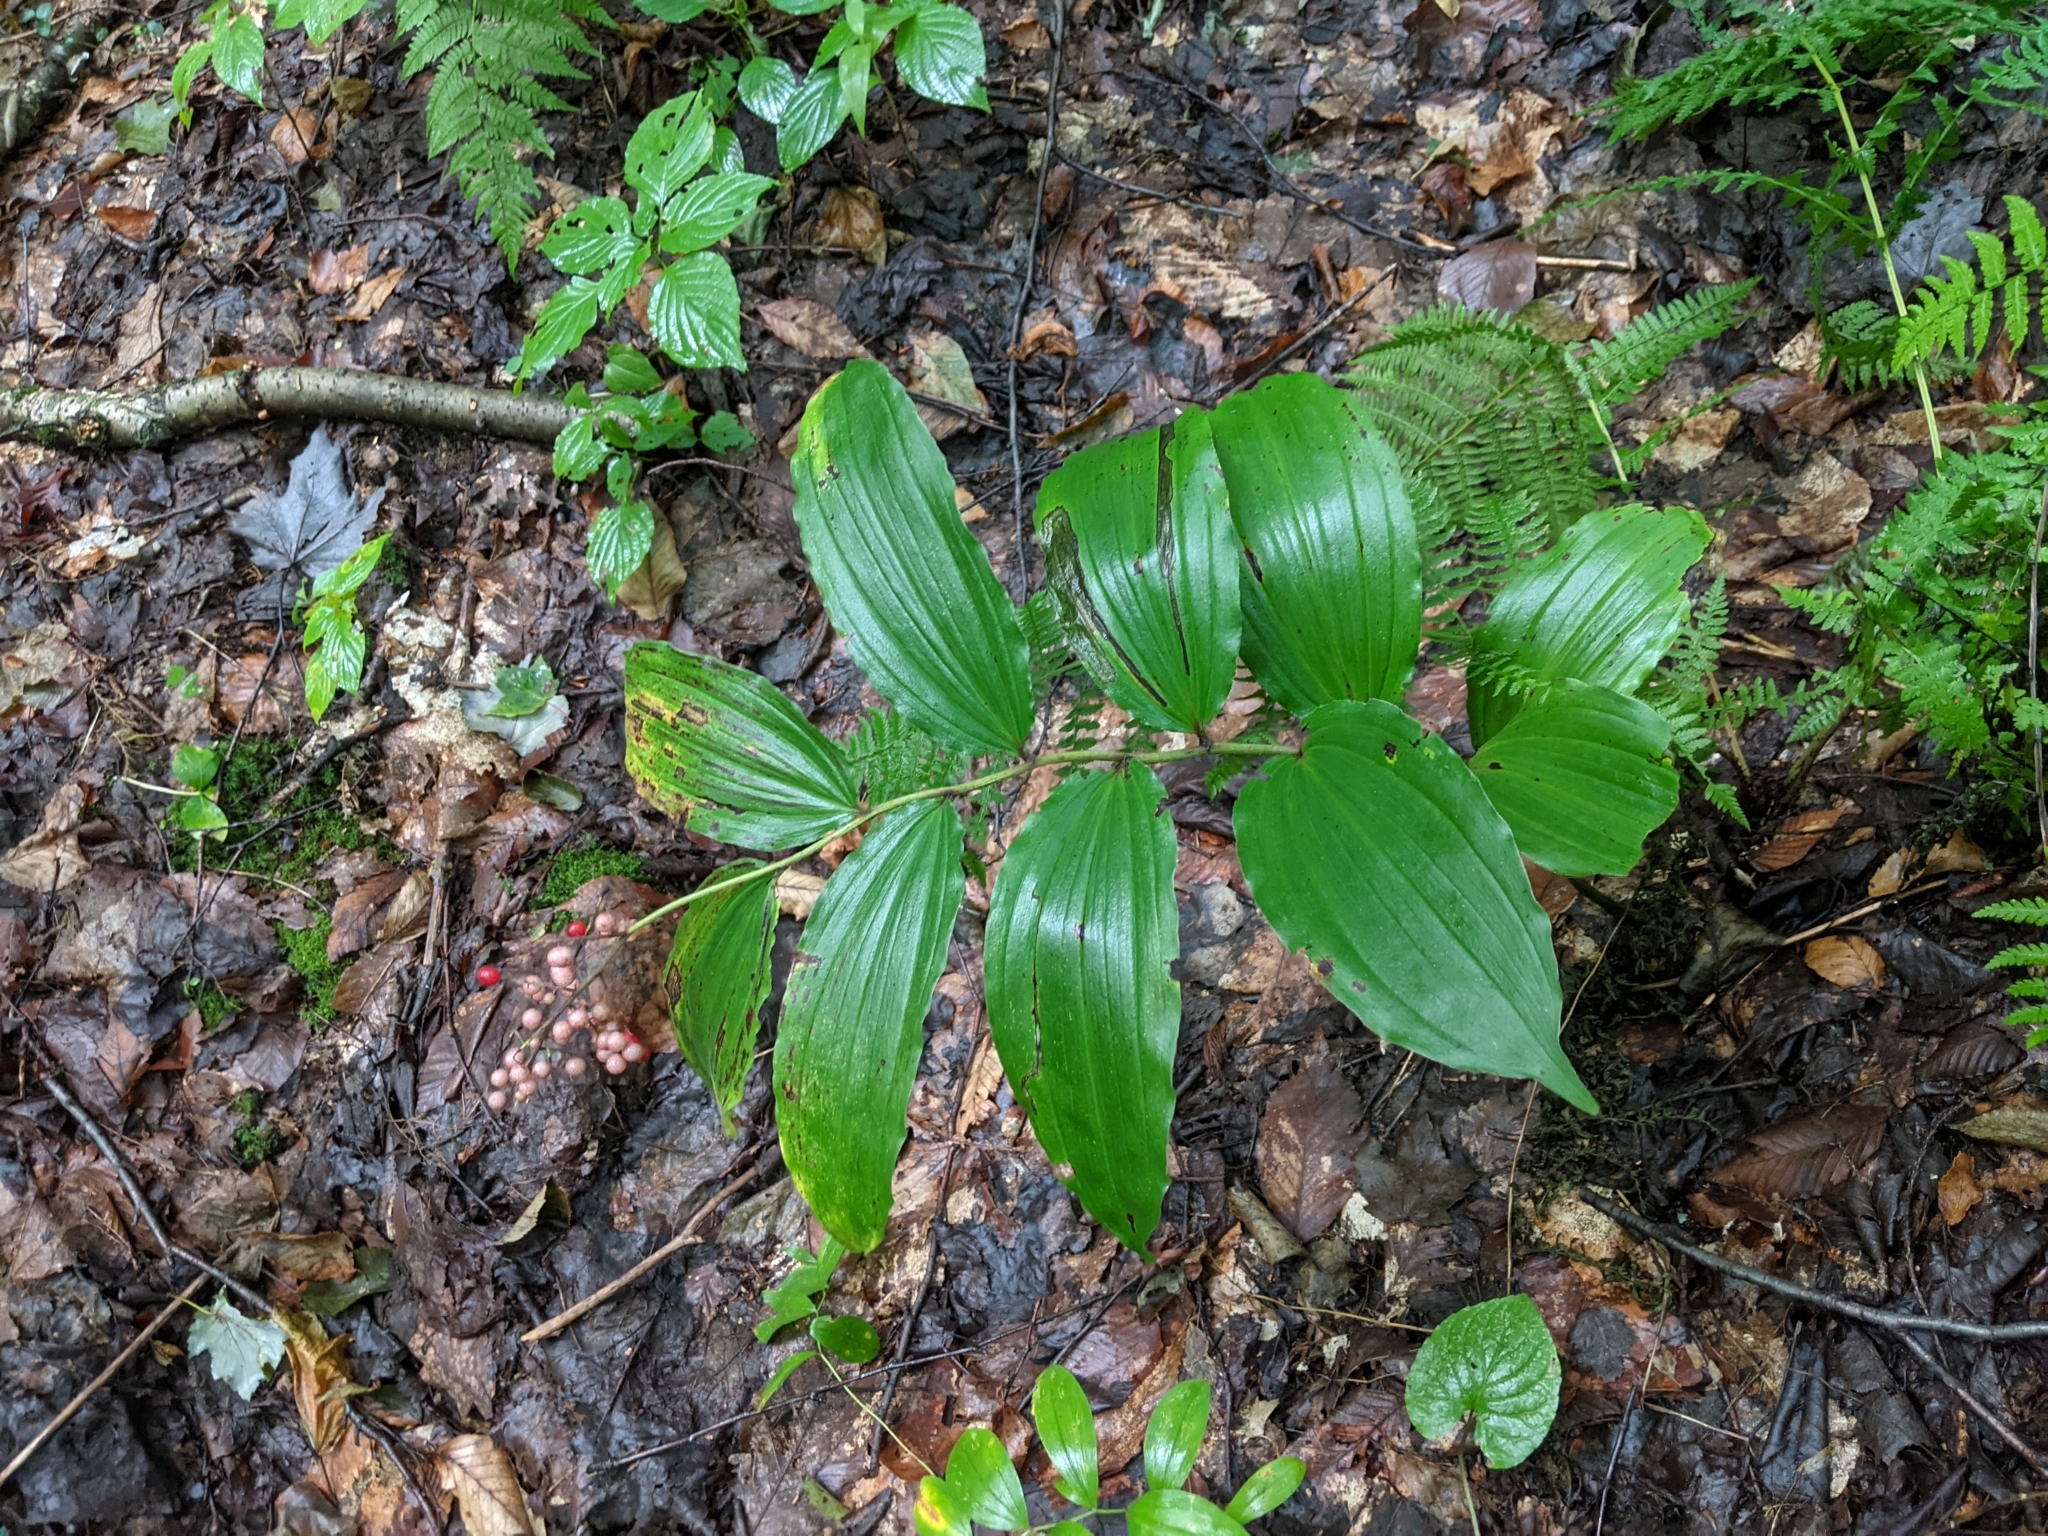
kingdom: Plantae
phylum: Tracheophyta
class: Liliopsida
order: Asparagales
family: Asparagaceae
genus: Maianthemum
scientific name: Maianthemum racemosum
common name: False spikenard
